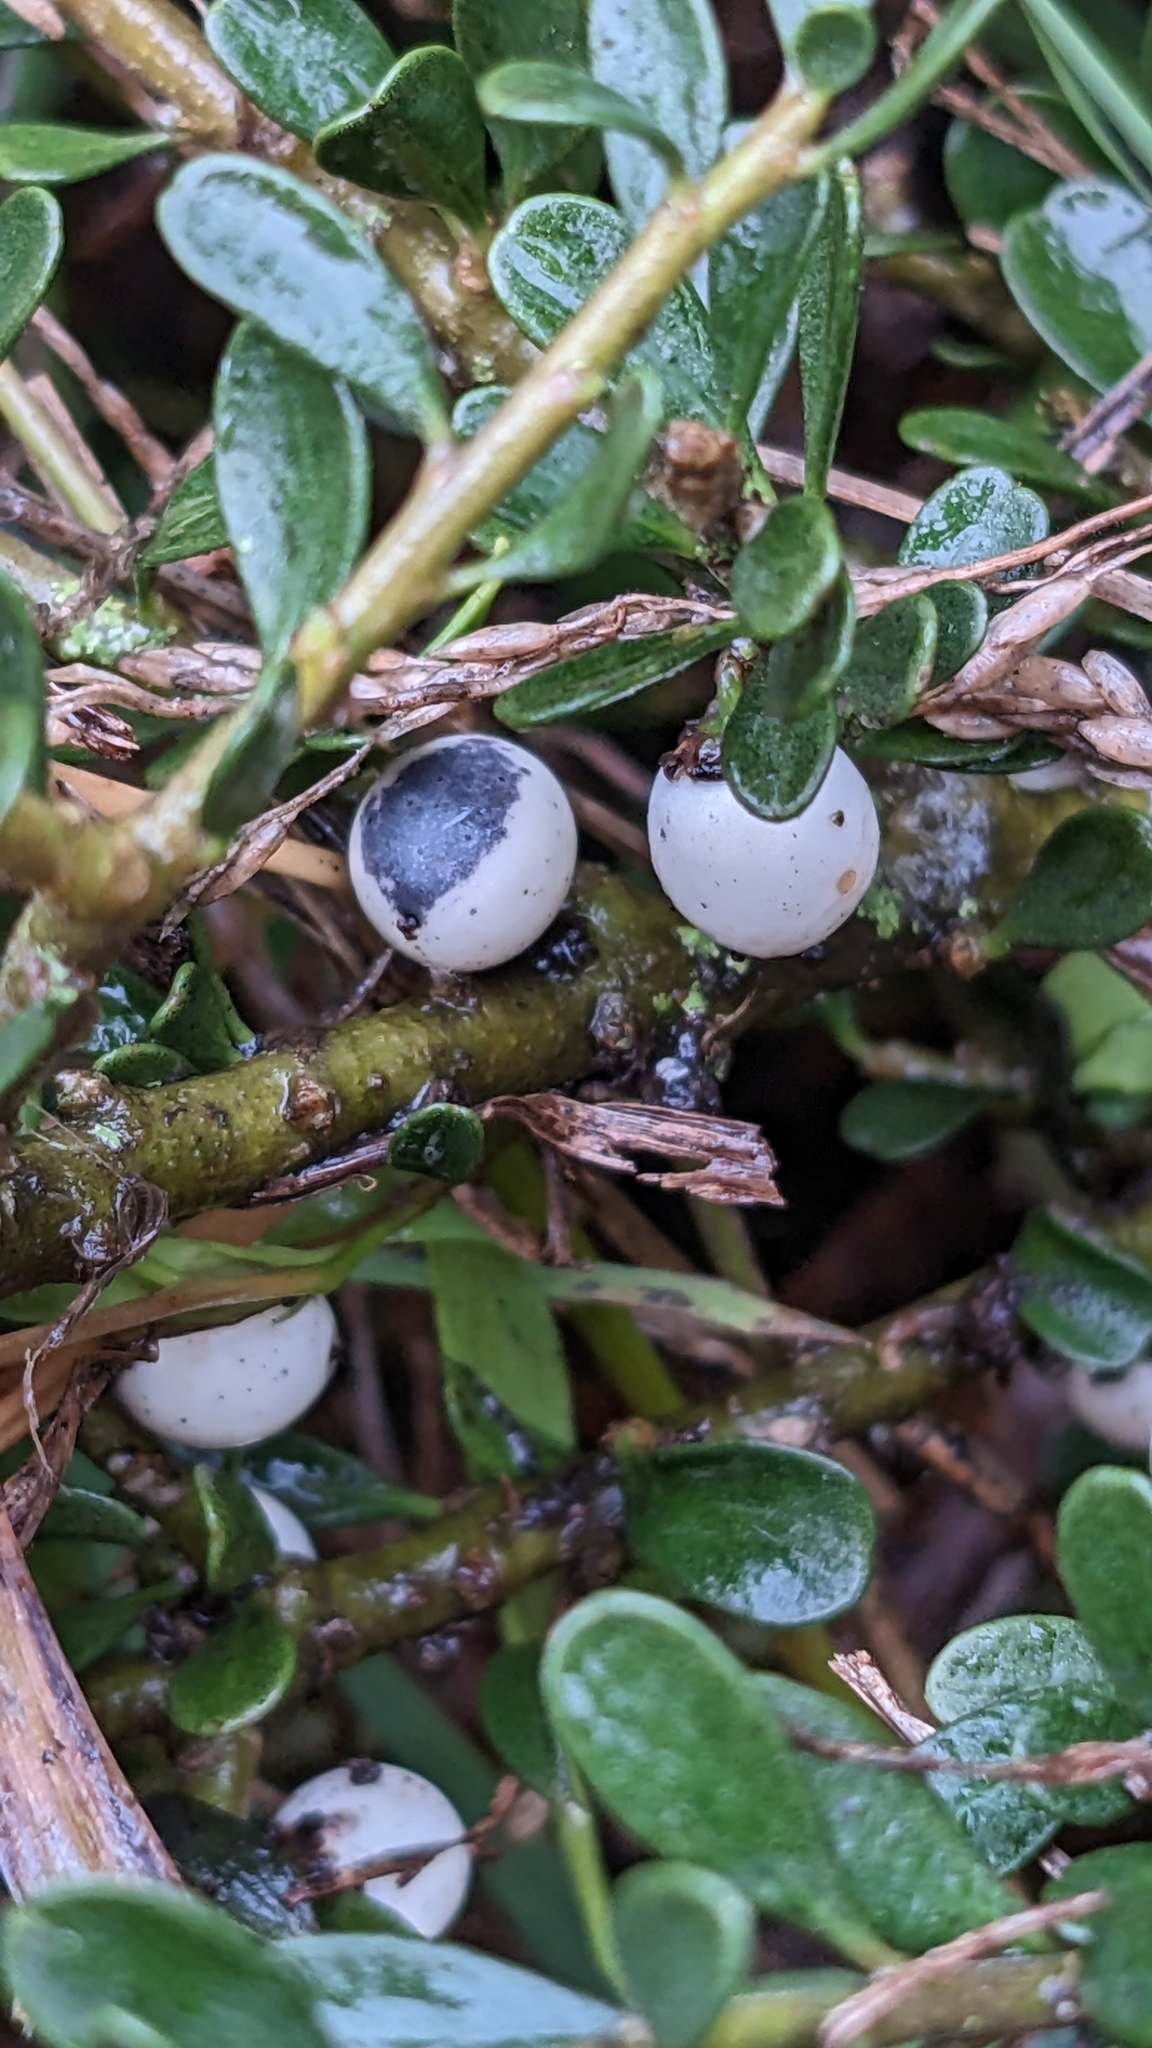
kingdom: Plantae
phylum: Tracheophyta
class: Magnoliopsida
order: Malpighiales
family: Violaceae
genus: Melicytus
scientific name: Melicytus crassifolius
